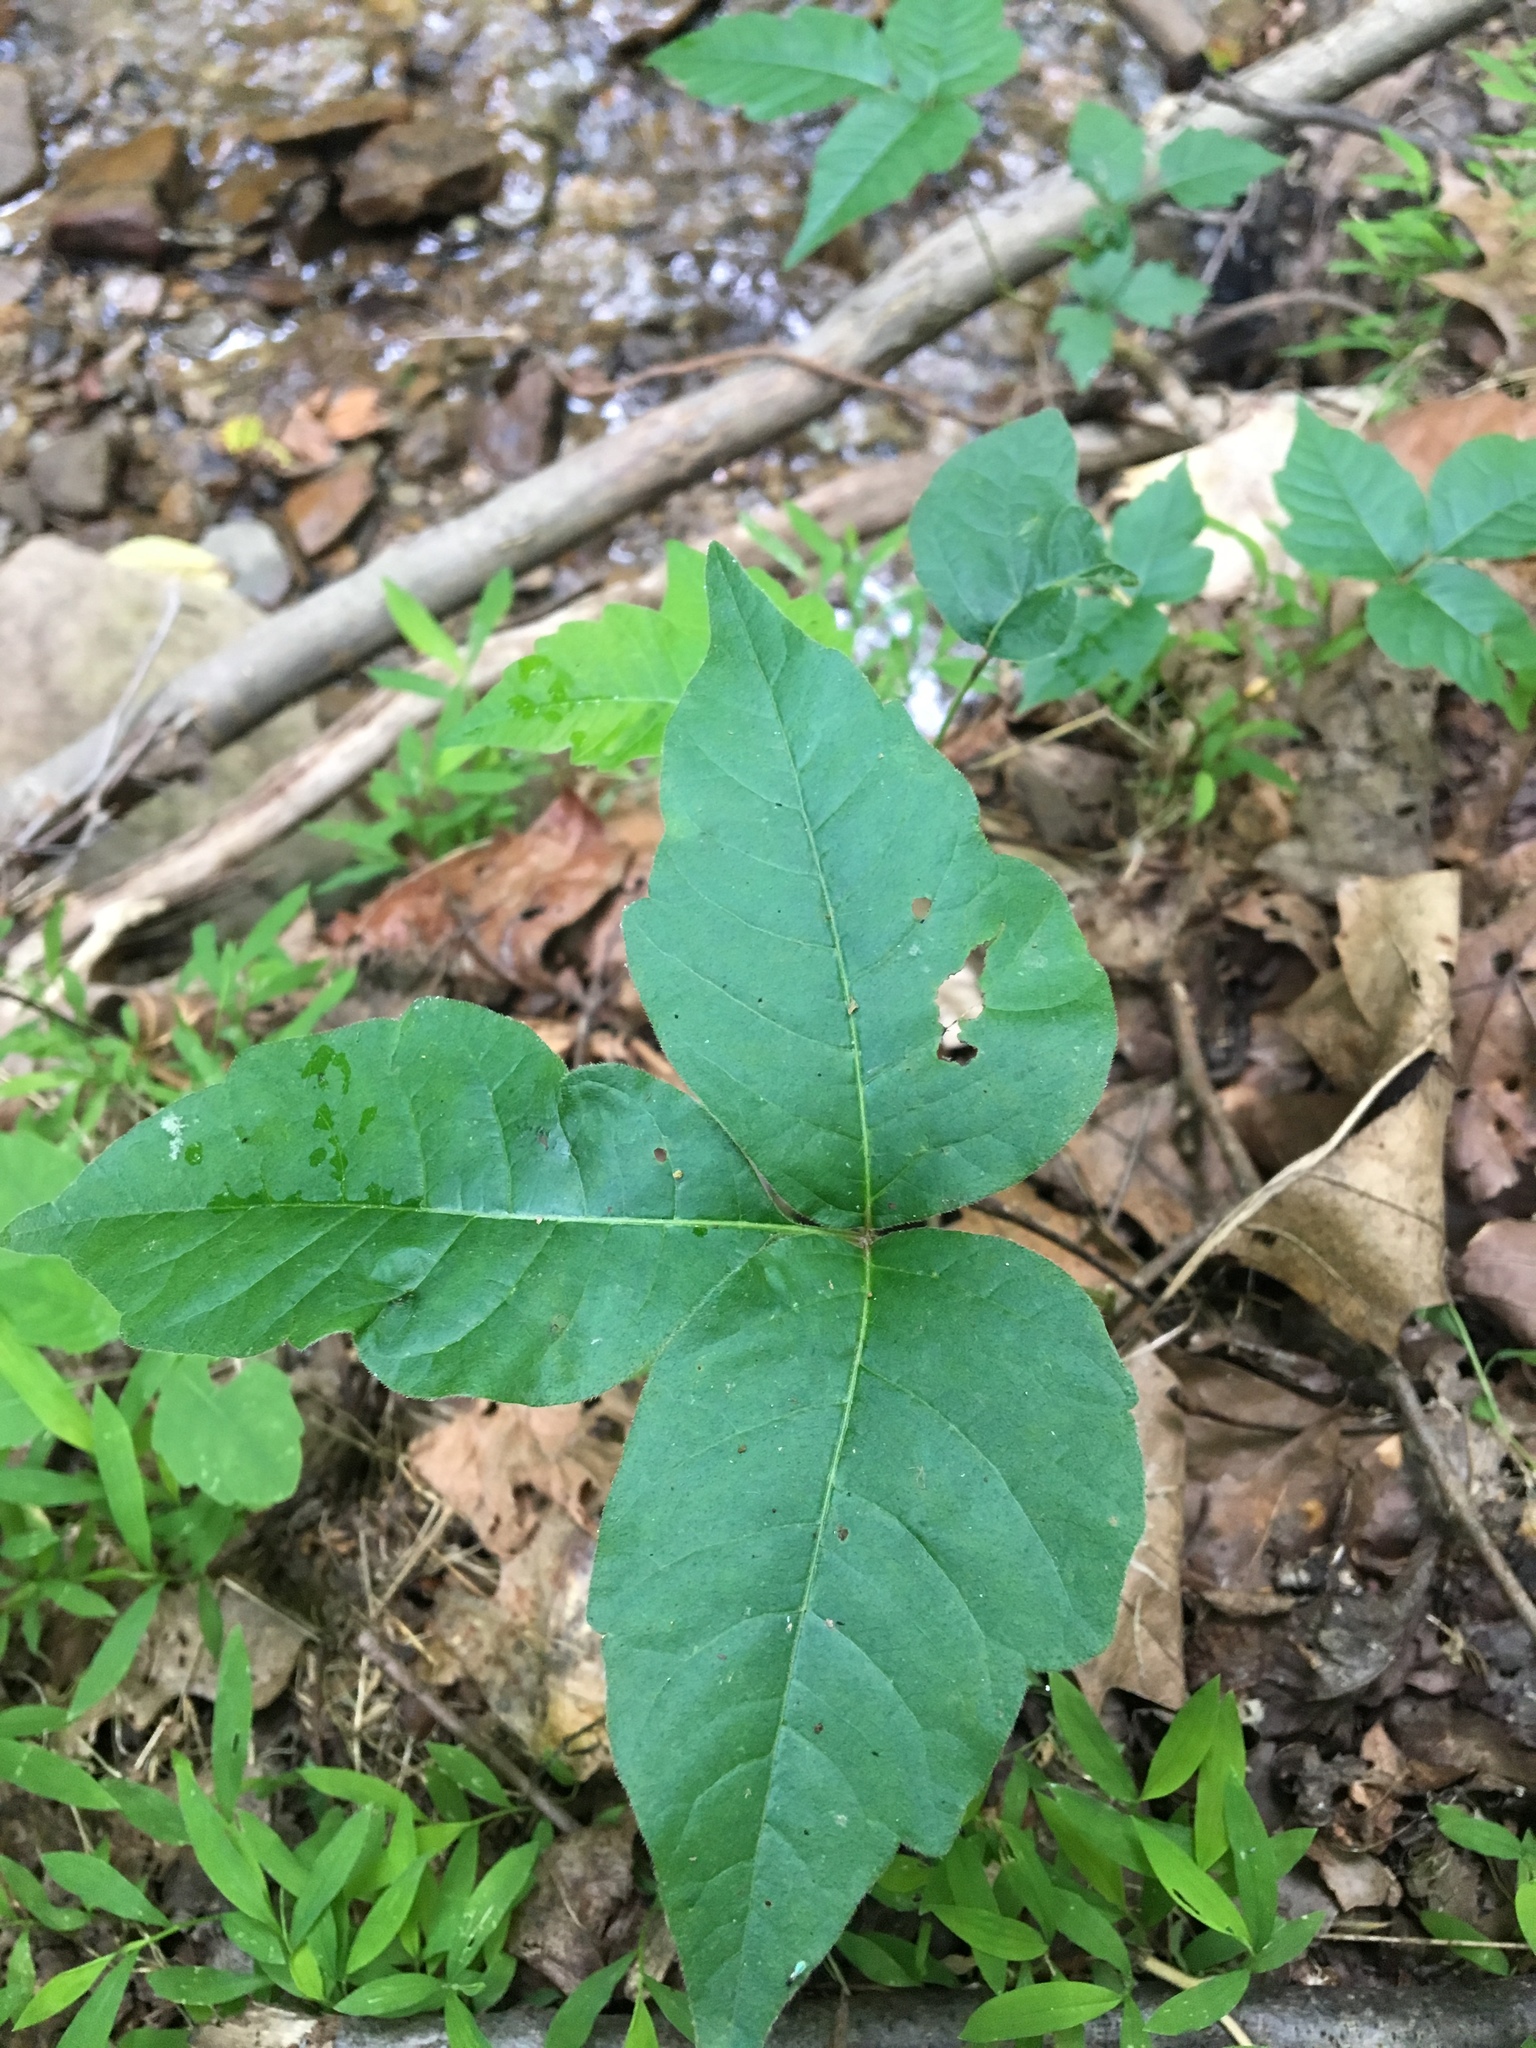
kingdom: Plantae
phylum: Tracheophyta
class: Magnoliopsida
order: Sapindales
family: Anacardiaceae
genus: Toxicodendron
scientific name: Toxicodendron radicans
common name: Poison ivy
